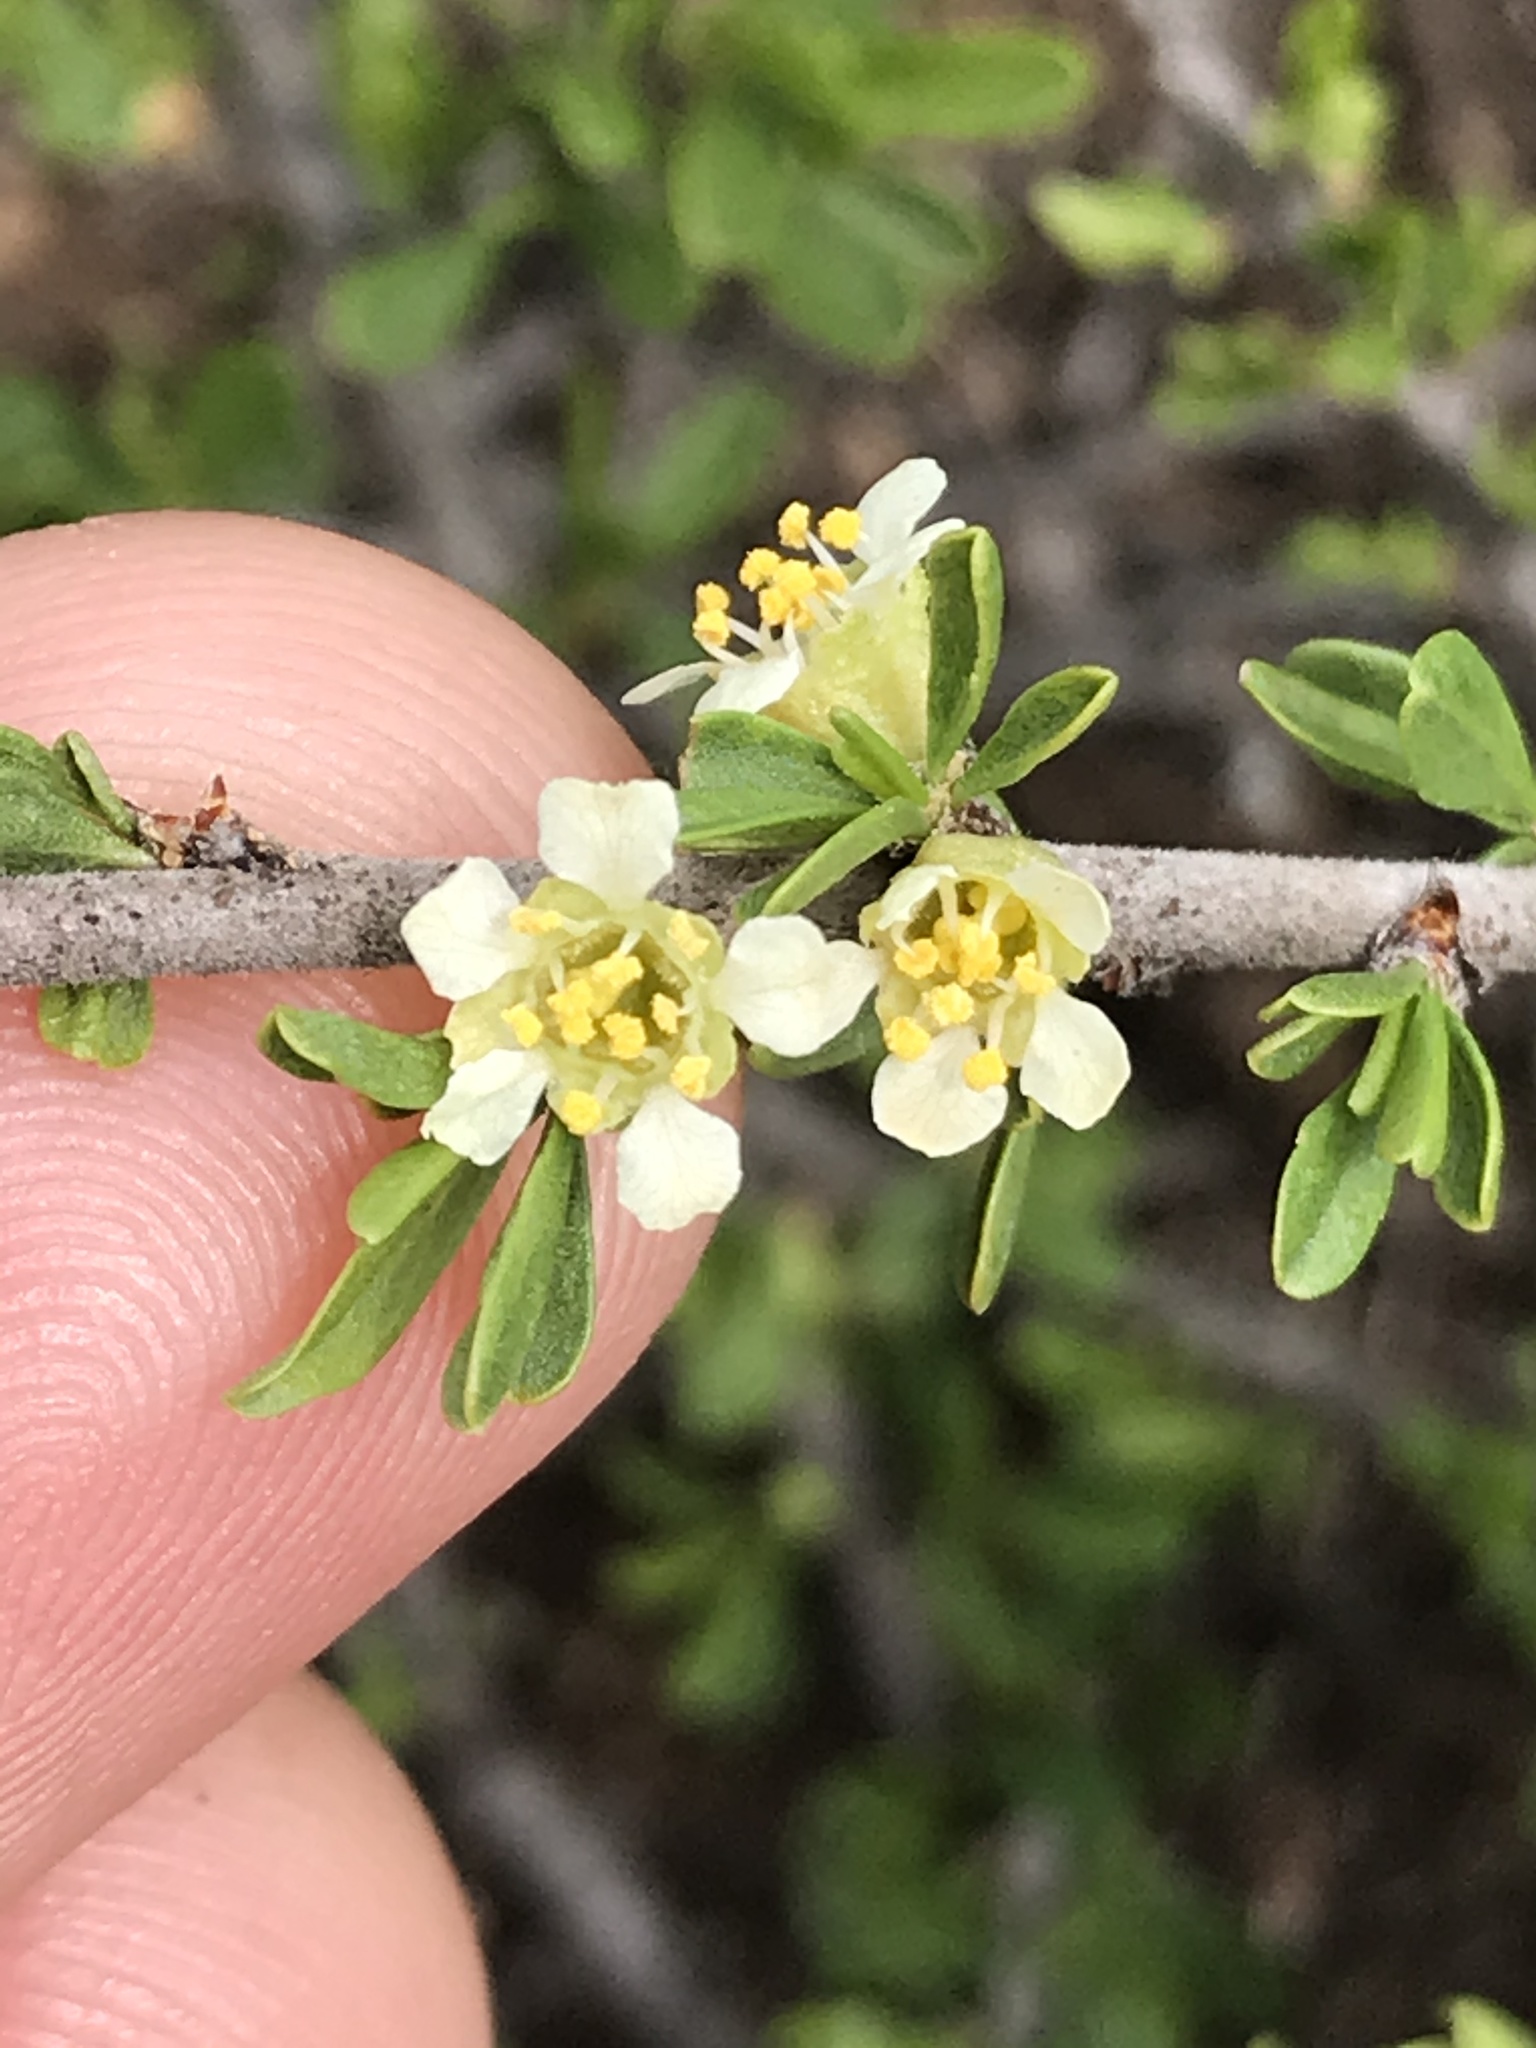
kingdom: Plantae
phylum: Tracheophyta
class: Magnoliopsida
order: Rosales
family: Rosaceae
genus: Prunus
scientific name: Prunus fasciculata
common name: Desert almond
